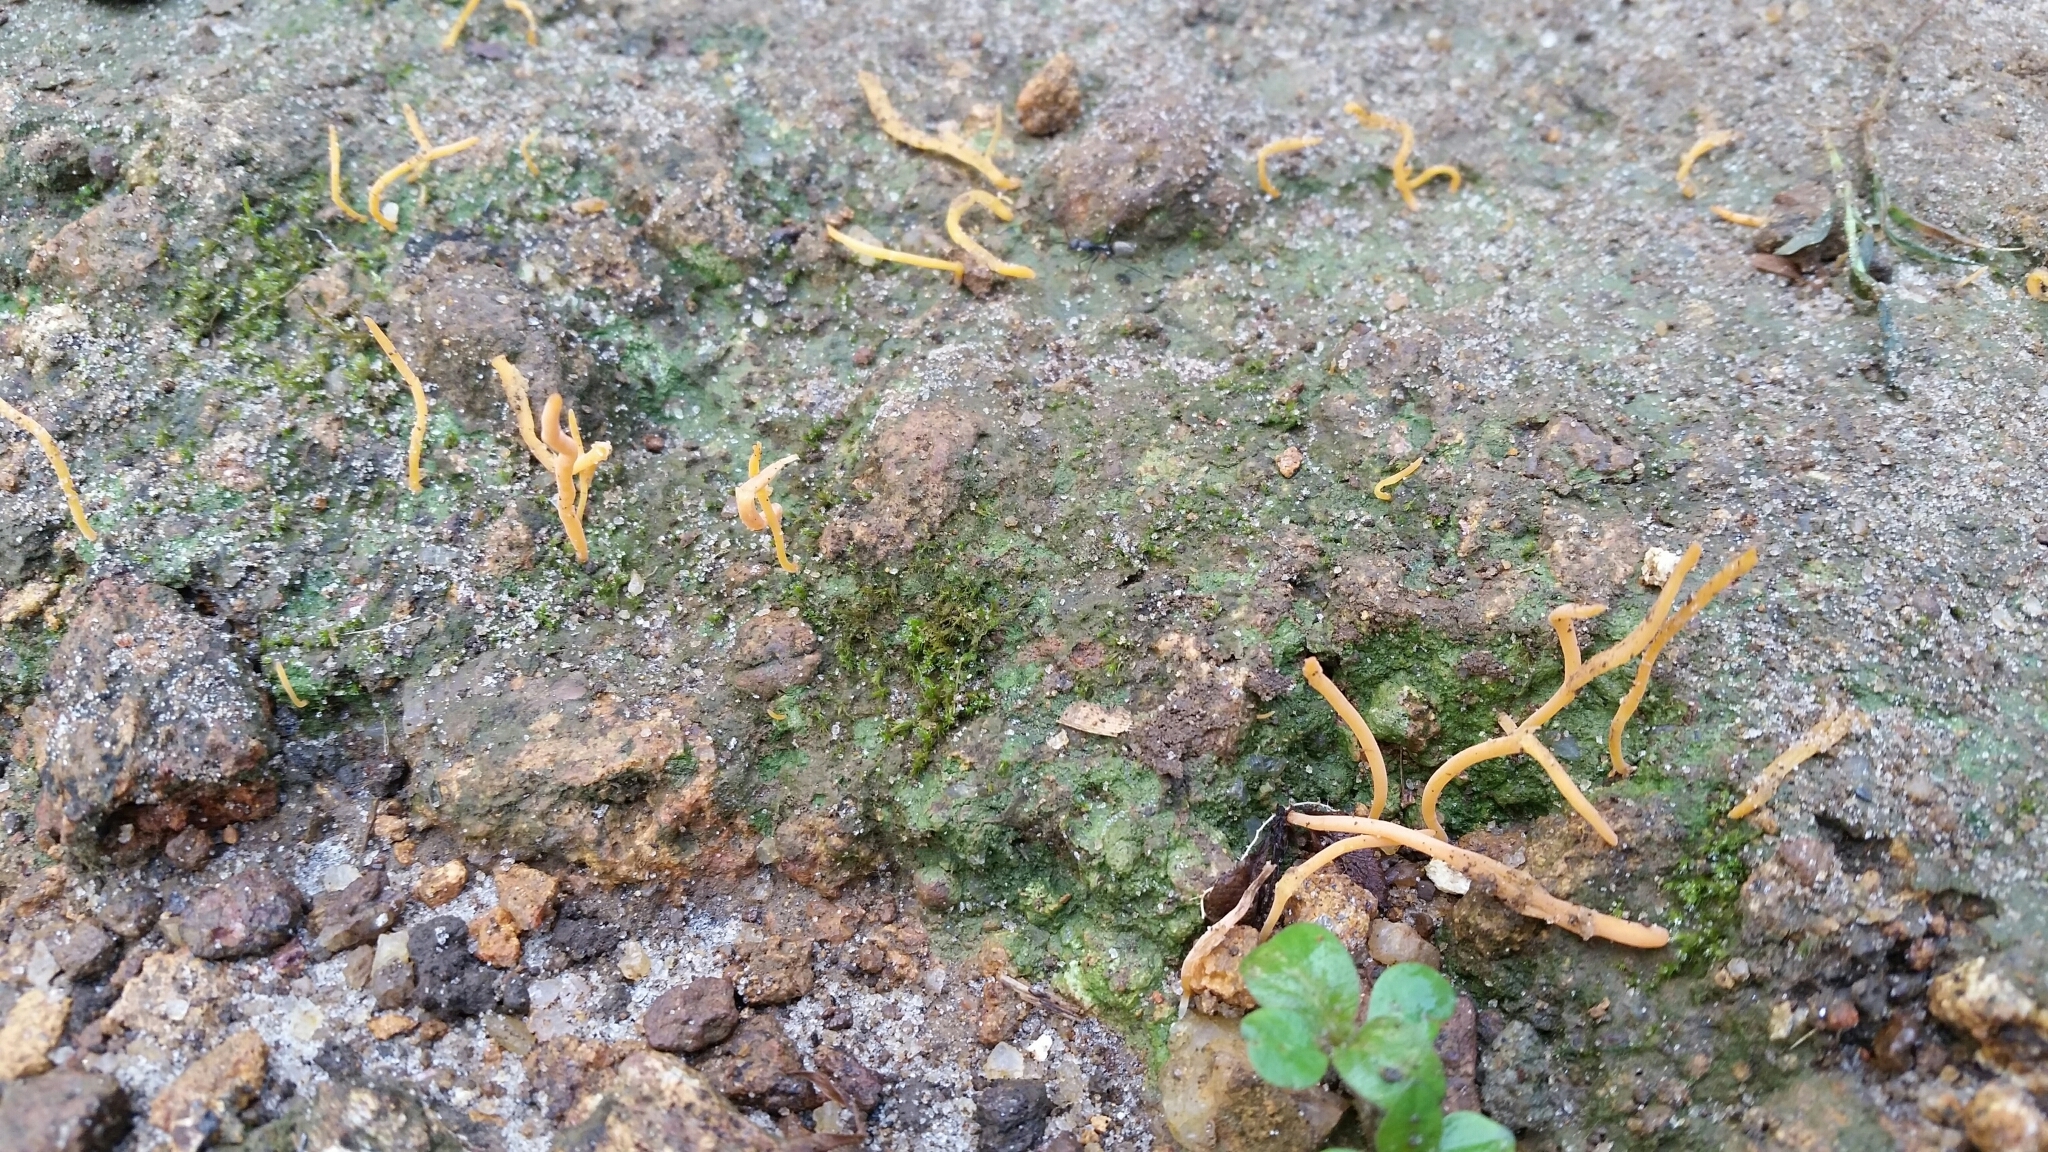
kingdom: Fungi
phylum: Basidiomycota
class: Agaricomycetes
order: Lepidostromatales
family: Lepidostromataceae
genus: Sulzbacheromyces
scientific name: Sulzbacheromyces sinensis
